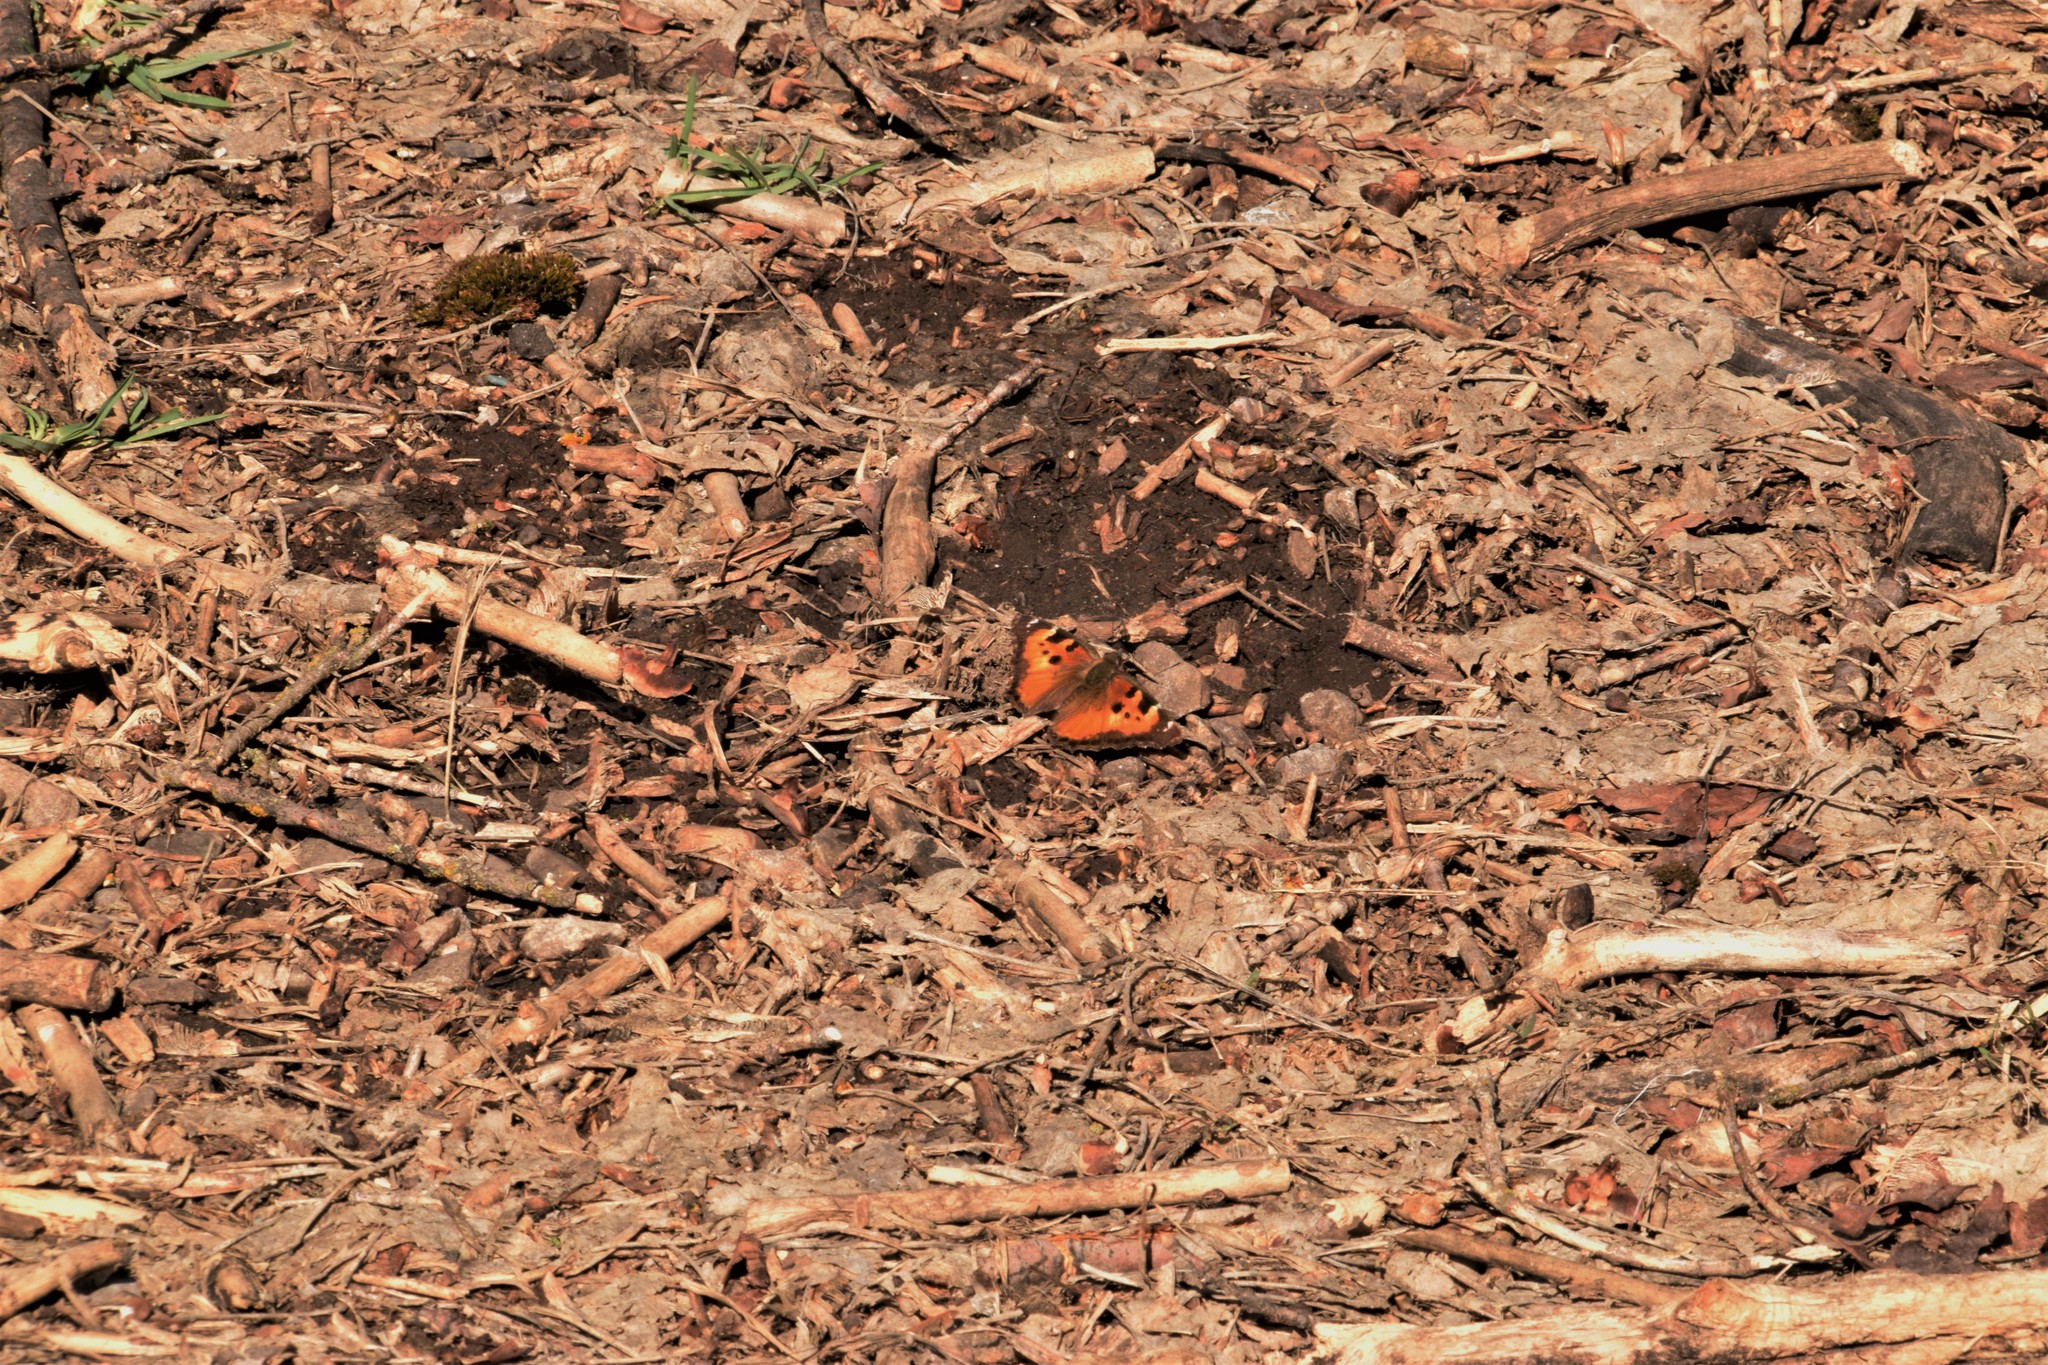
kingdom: Animalia
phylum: Arthropoda
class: Insecta
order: Lepidoptera
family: Nymphalidae
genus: Nymphalis
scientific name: Nymphalis californica
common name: California tortoiseshell
